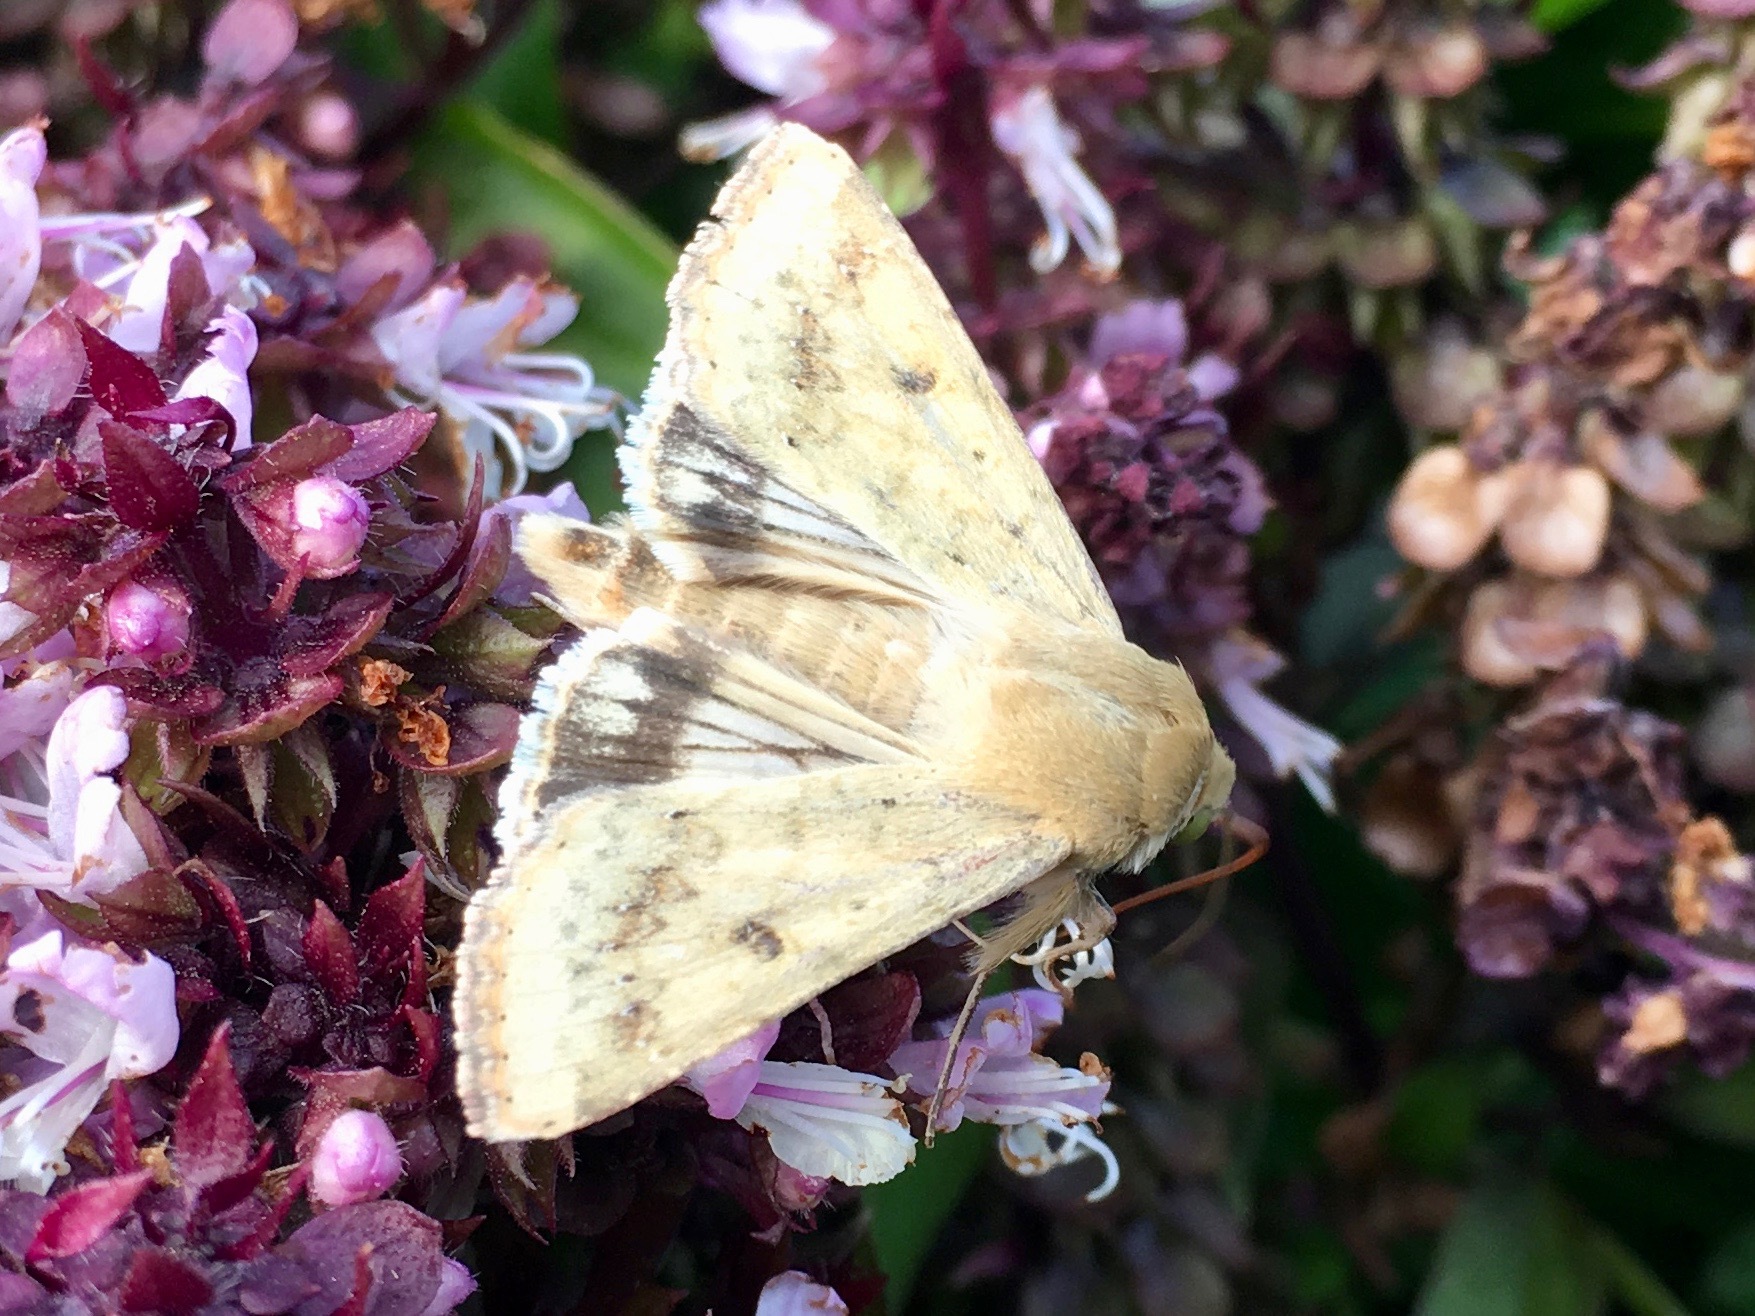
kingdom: Animalia
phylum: Arthropoda
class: Insecta
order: Lepidoptera
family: Noctuidae
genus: Helicoverpa
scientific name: Helicoverpa zea
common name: Bollworm
